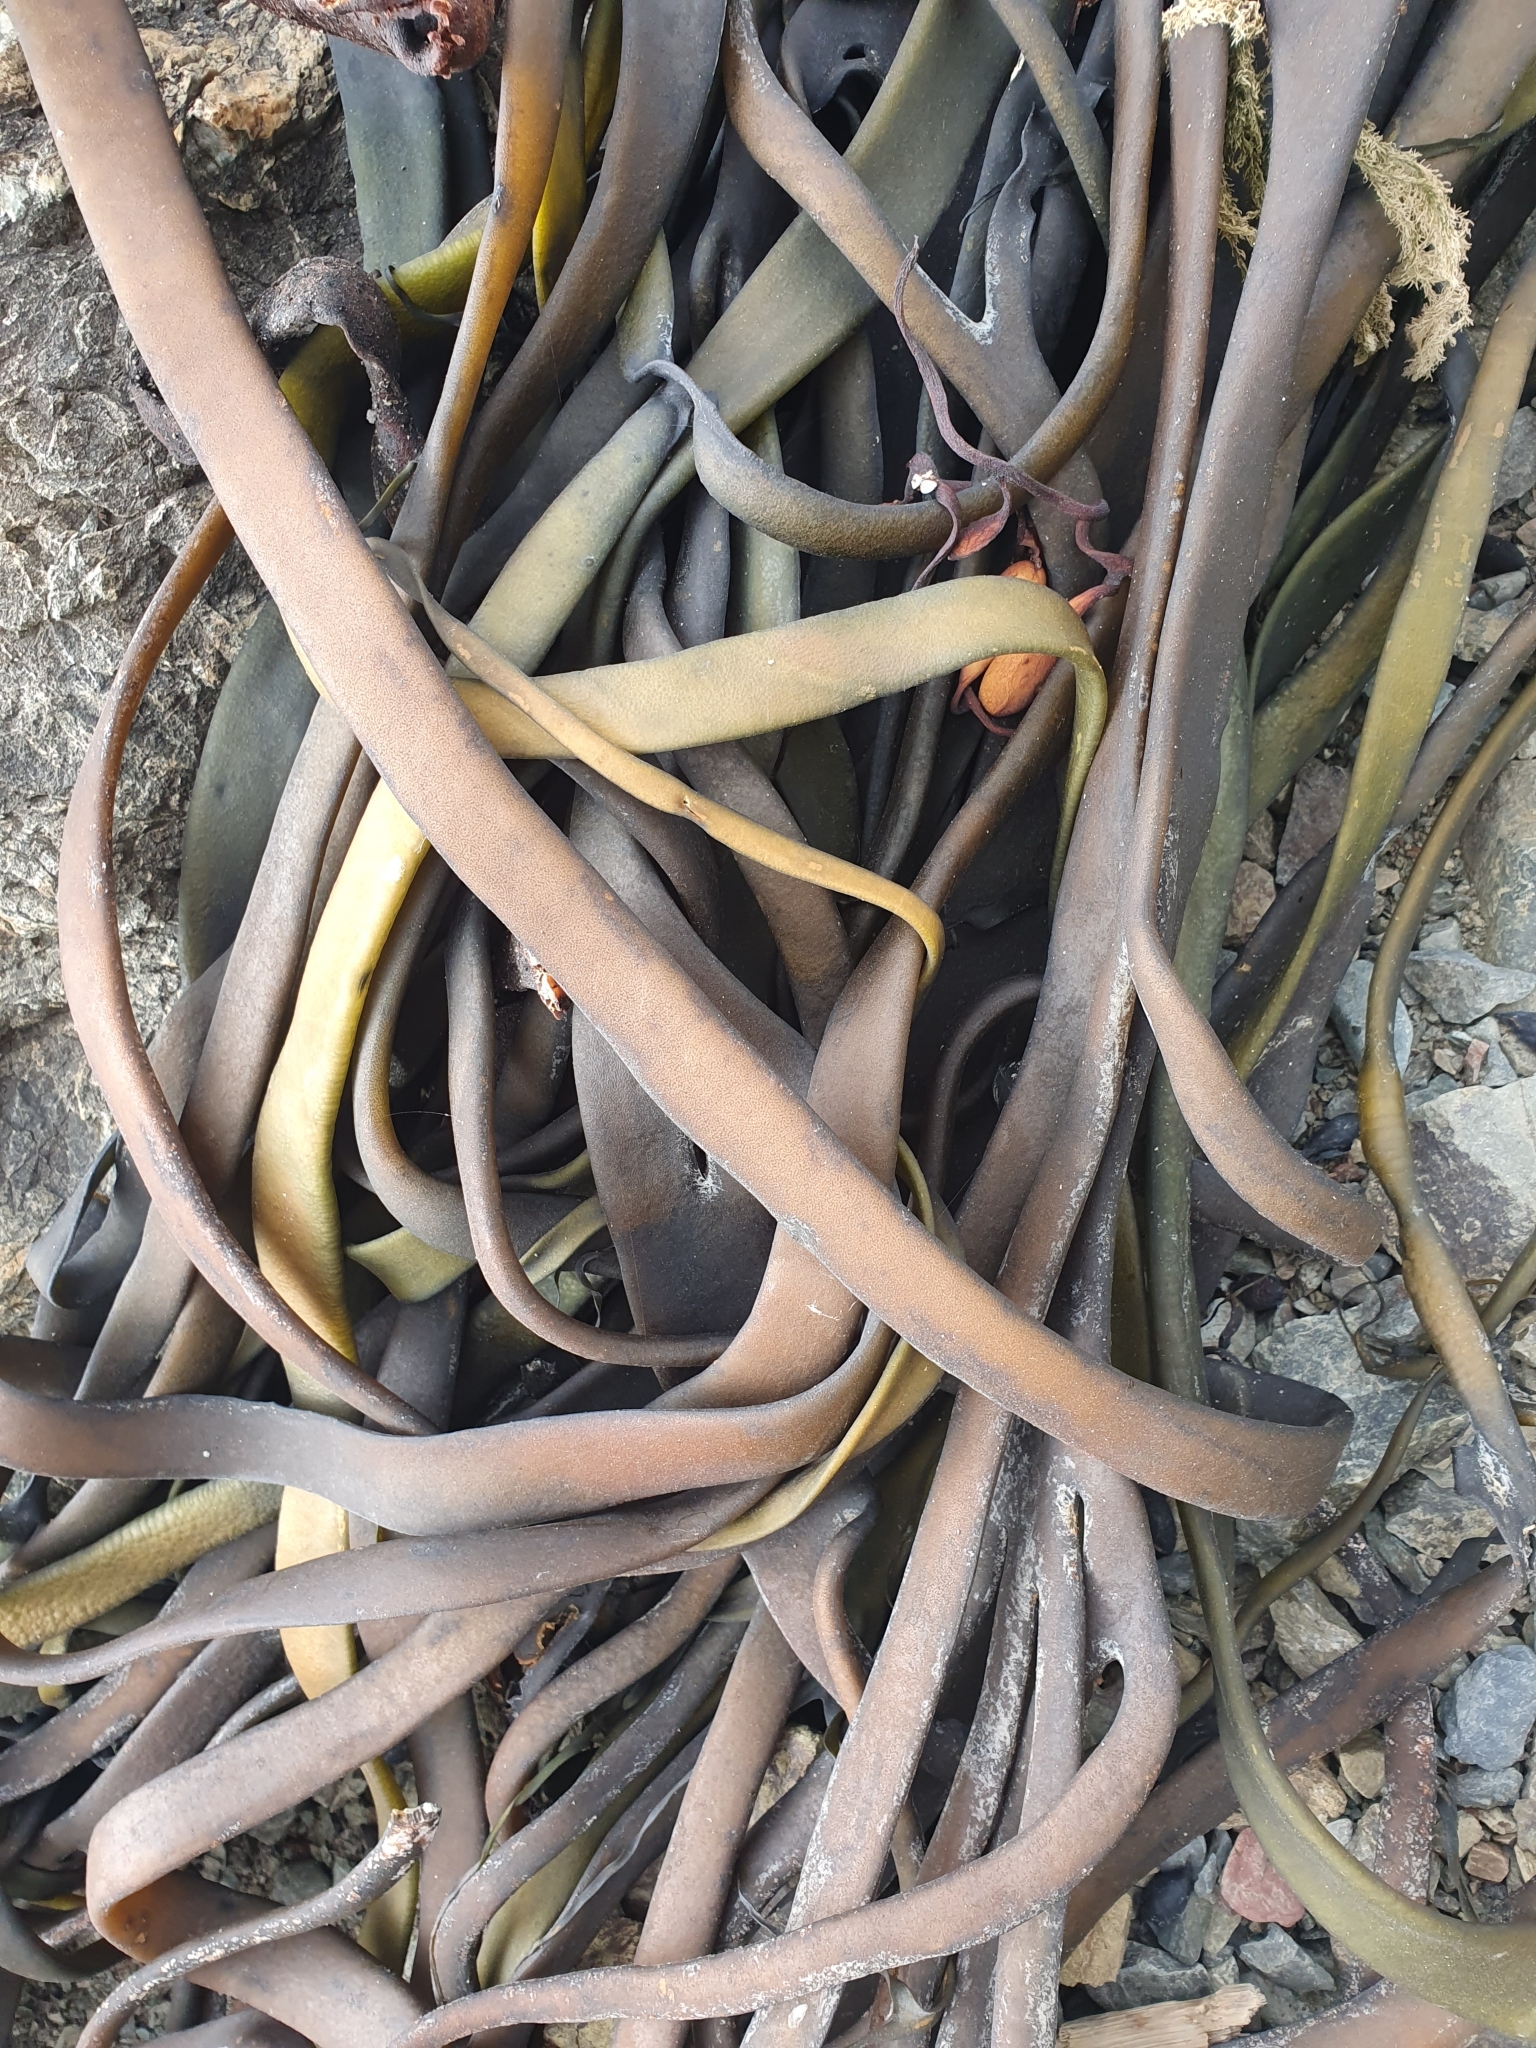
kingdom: Chromista
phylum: Ochrophyta
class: Phaeophyceae
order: Fucales
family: Durvillaeaceae
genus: Durvillaea
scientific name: Durvillaea antarctica
